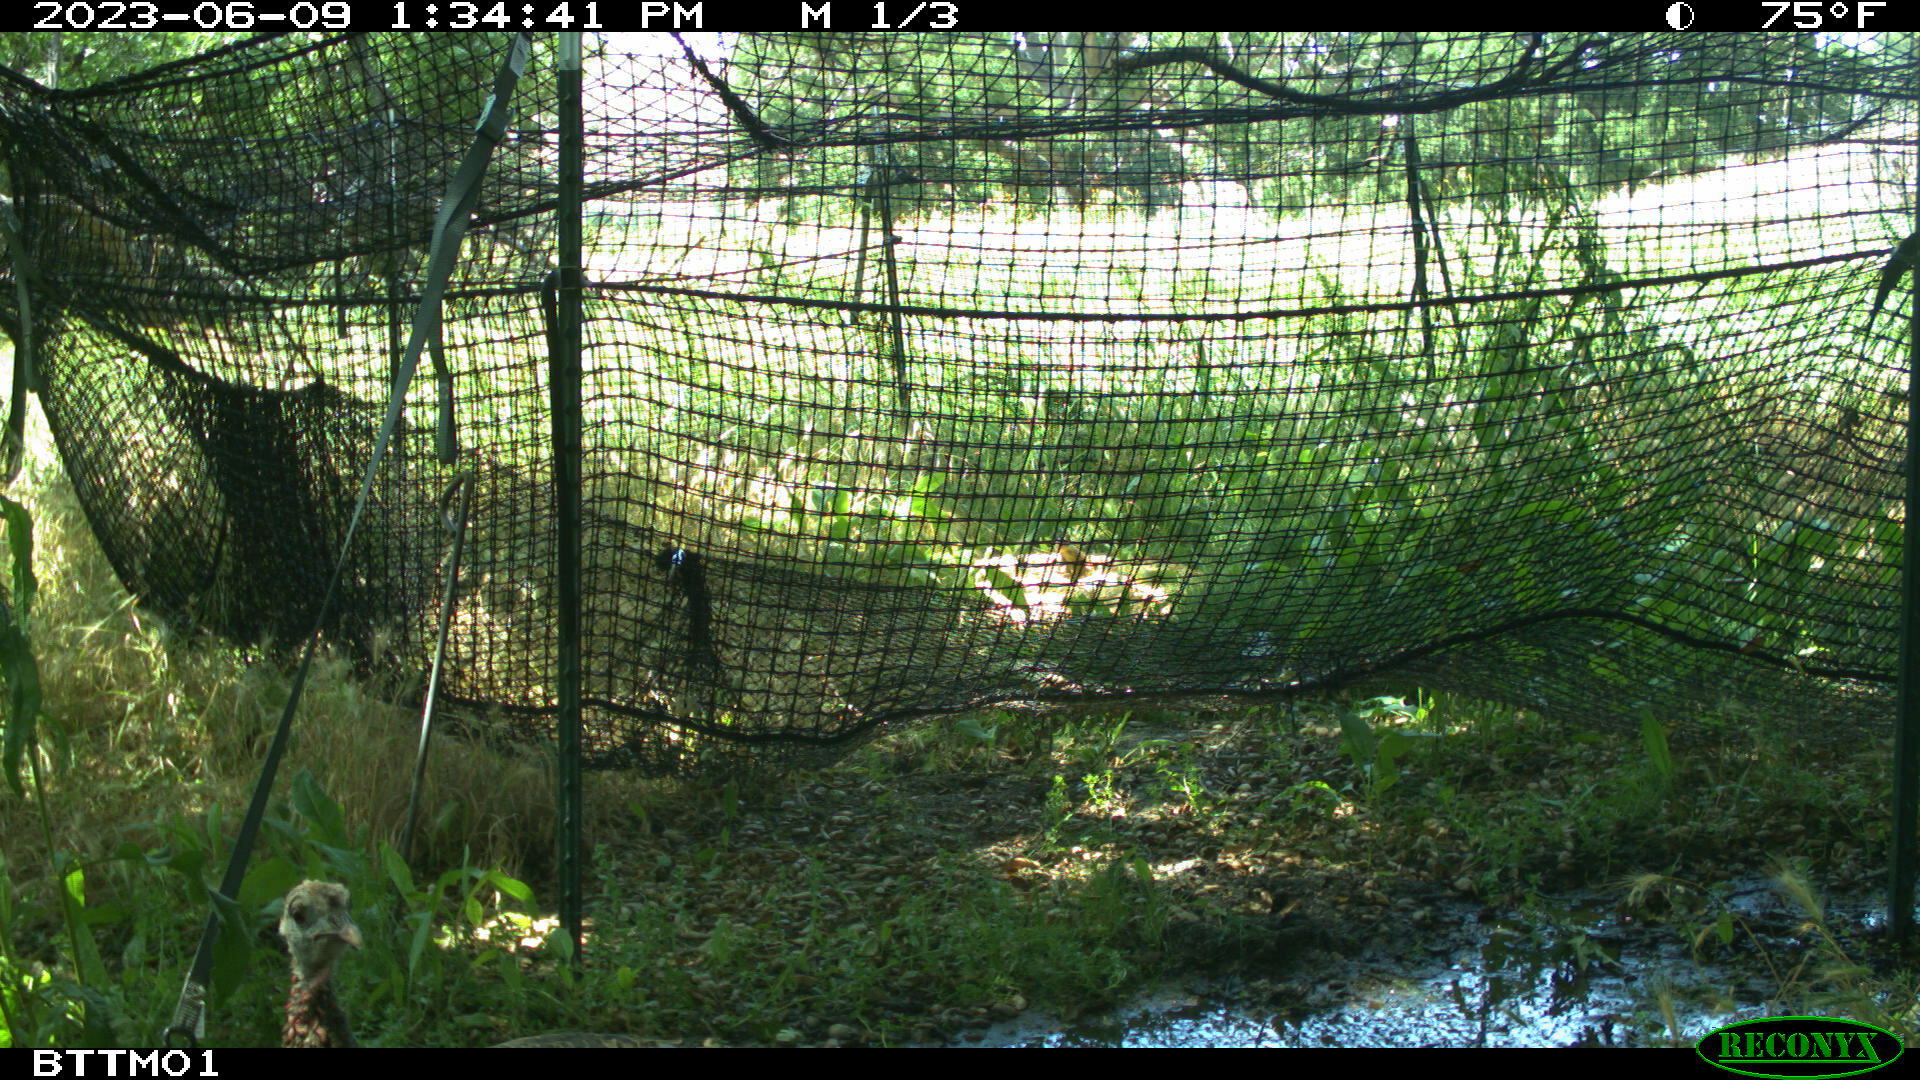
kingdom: Animalia
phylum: Chordata
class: Aves
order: Galliformes
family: Phasianidae
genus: Meleagris
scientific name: Meleagris gallopavo
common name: Wild turkey
